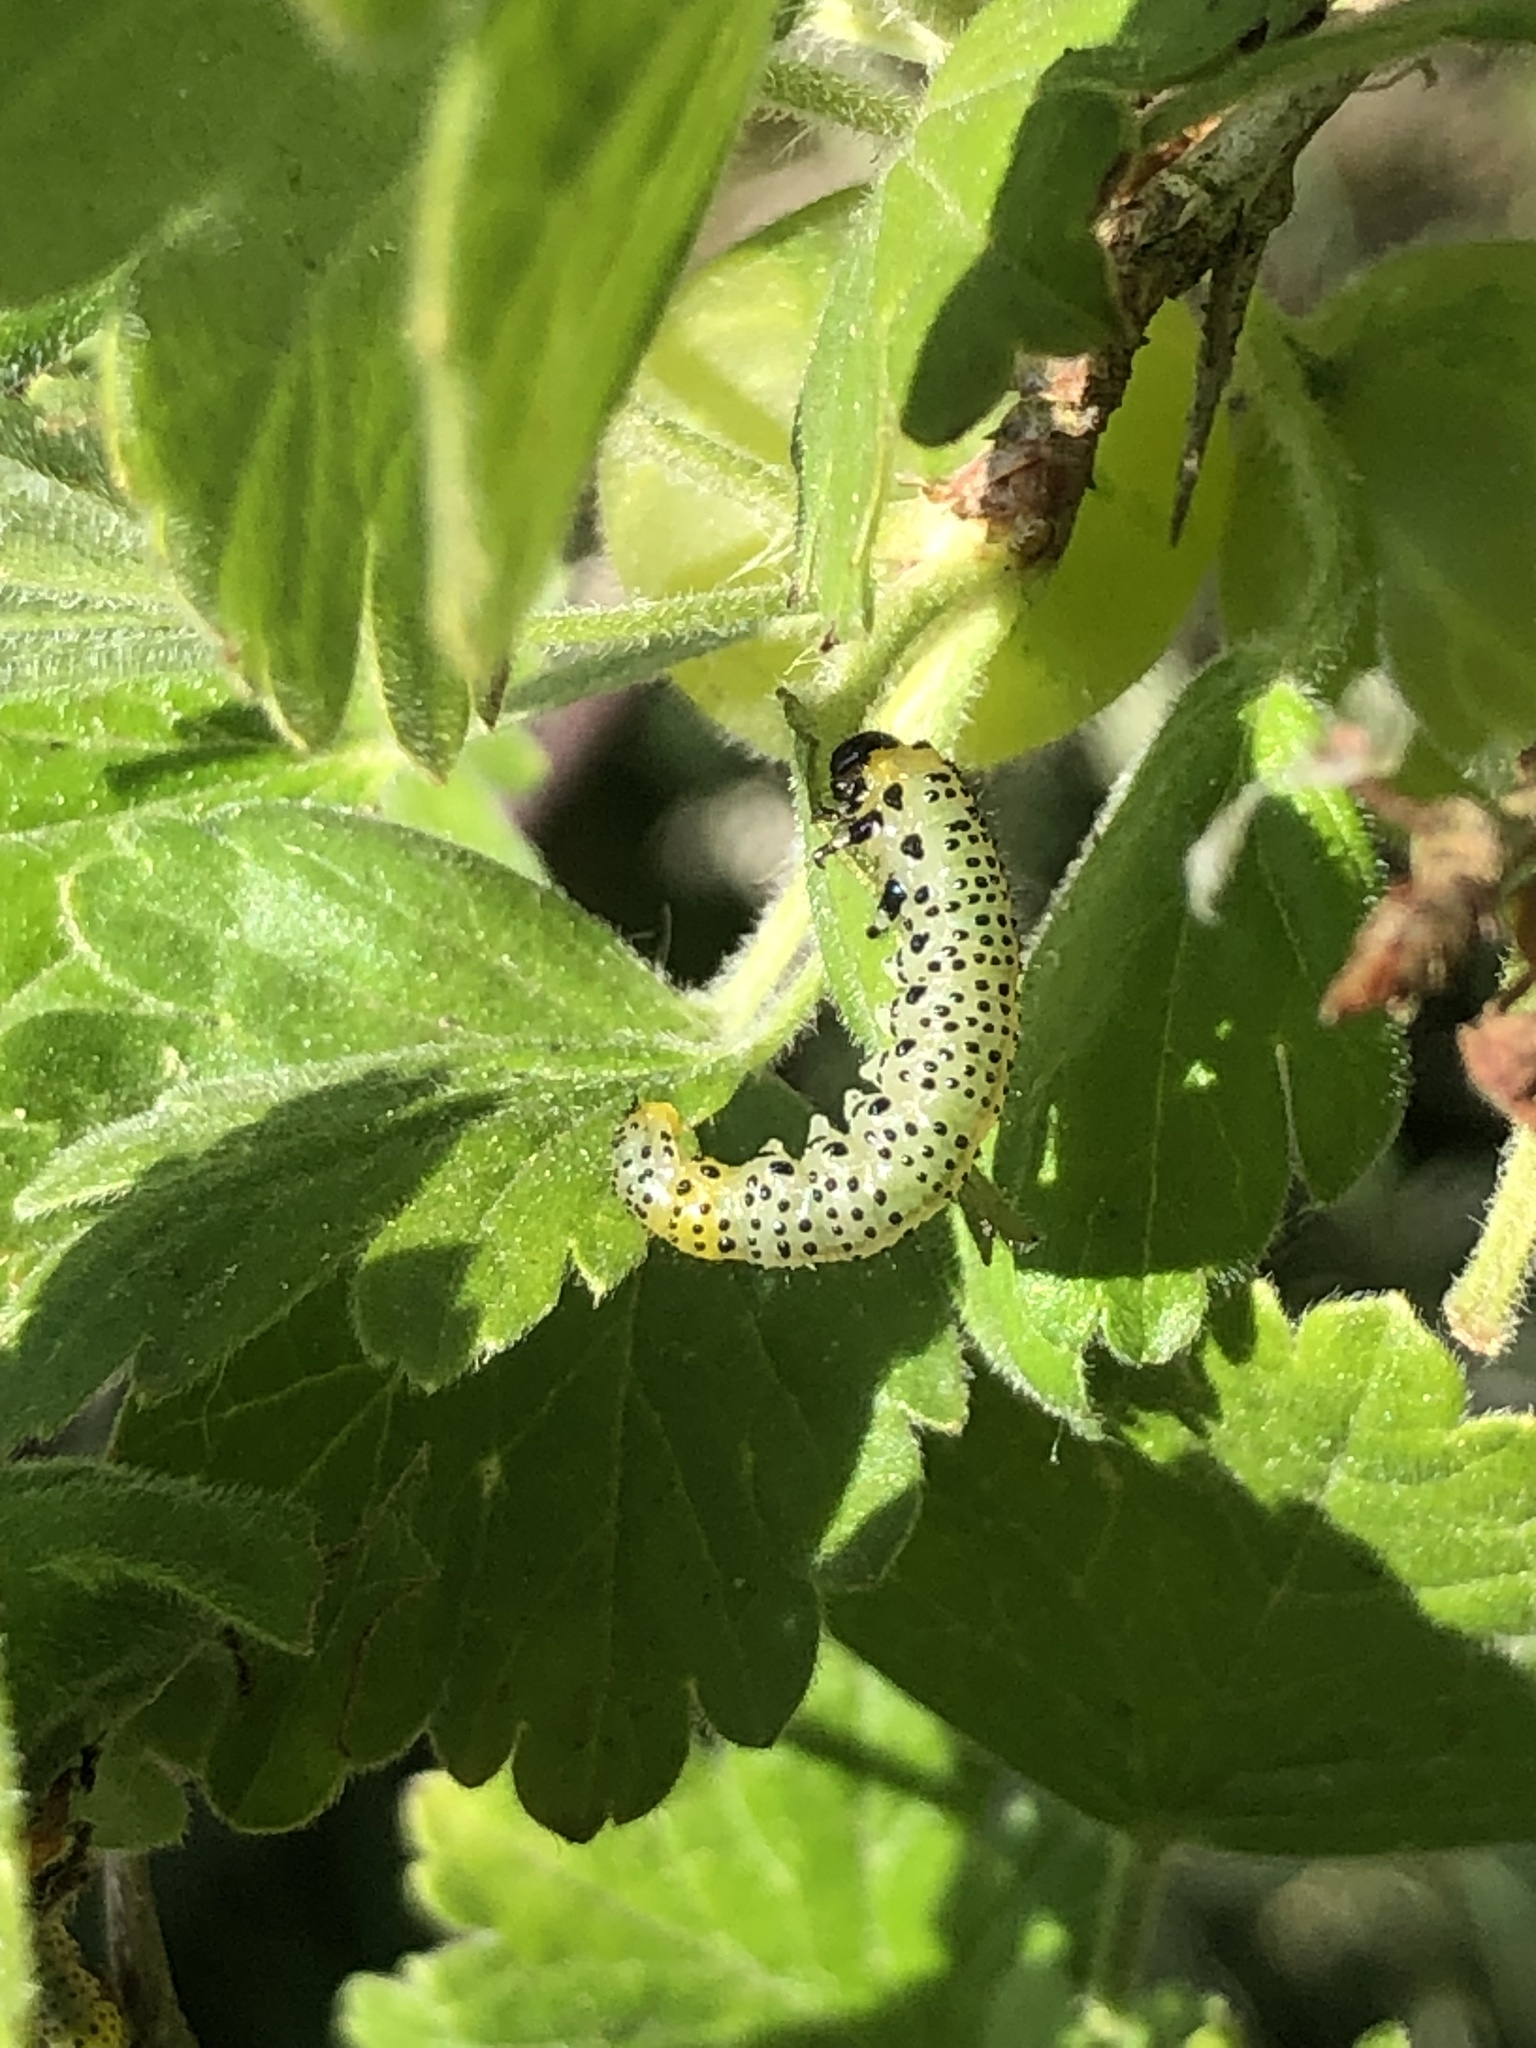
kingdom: Animalia
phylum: Arthropoda
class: Insecta
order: Hymenoptera
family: Tenthredinidae
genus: Nematus
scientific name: Nematus ribesii
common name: Imported currantworm
